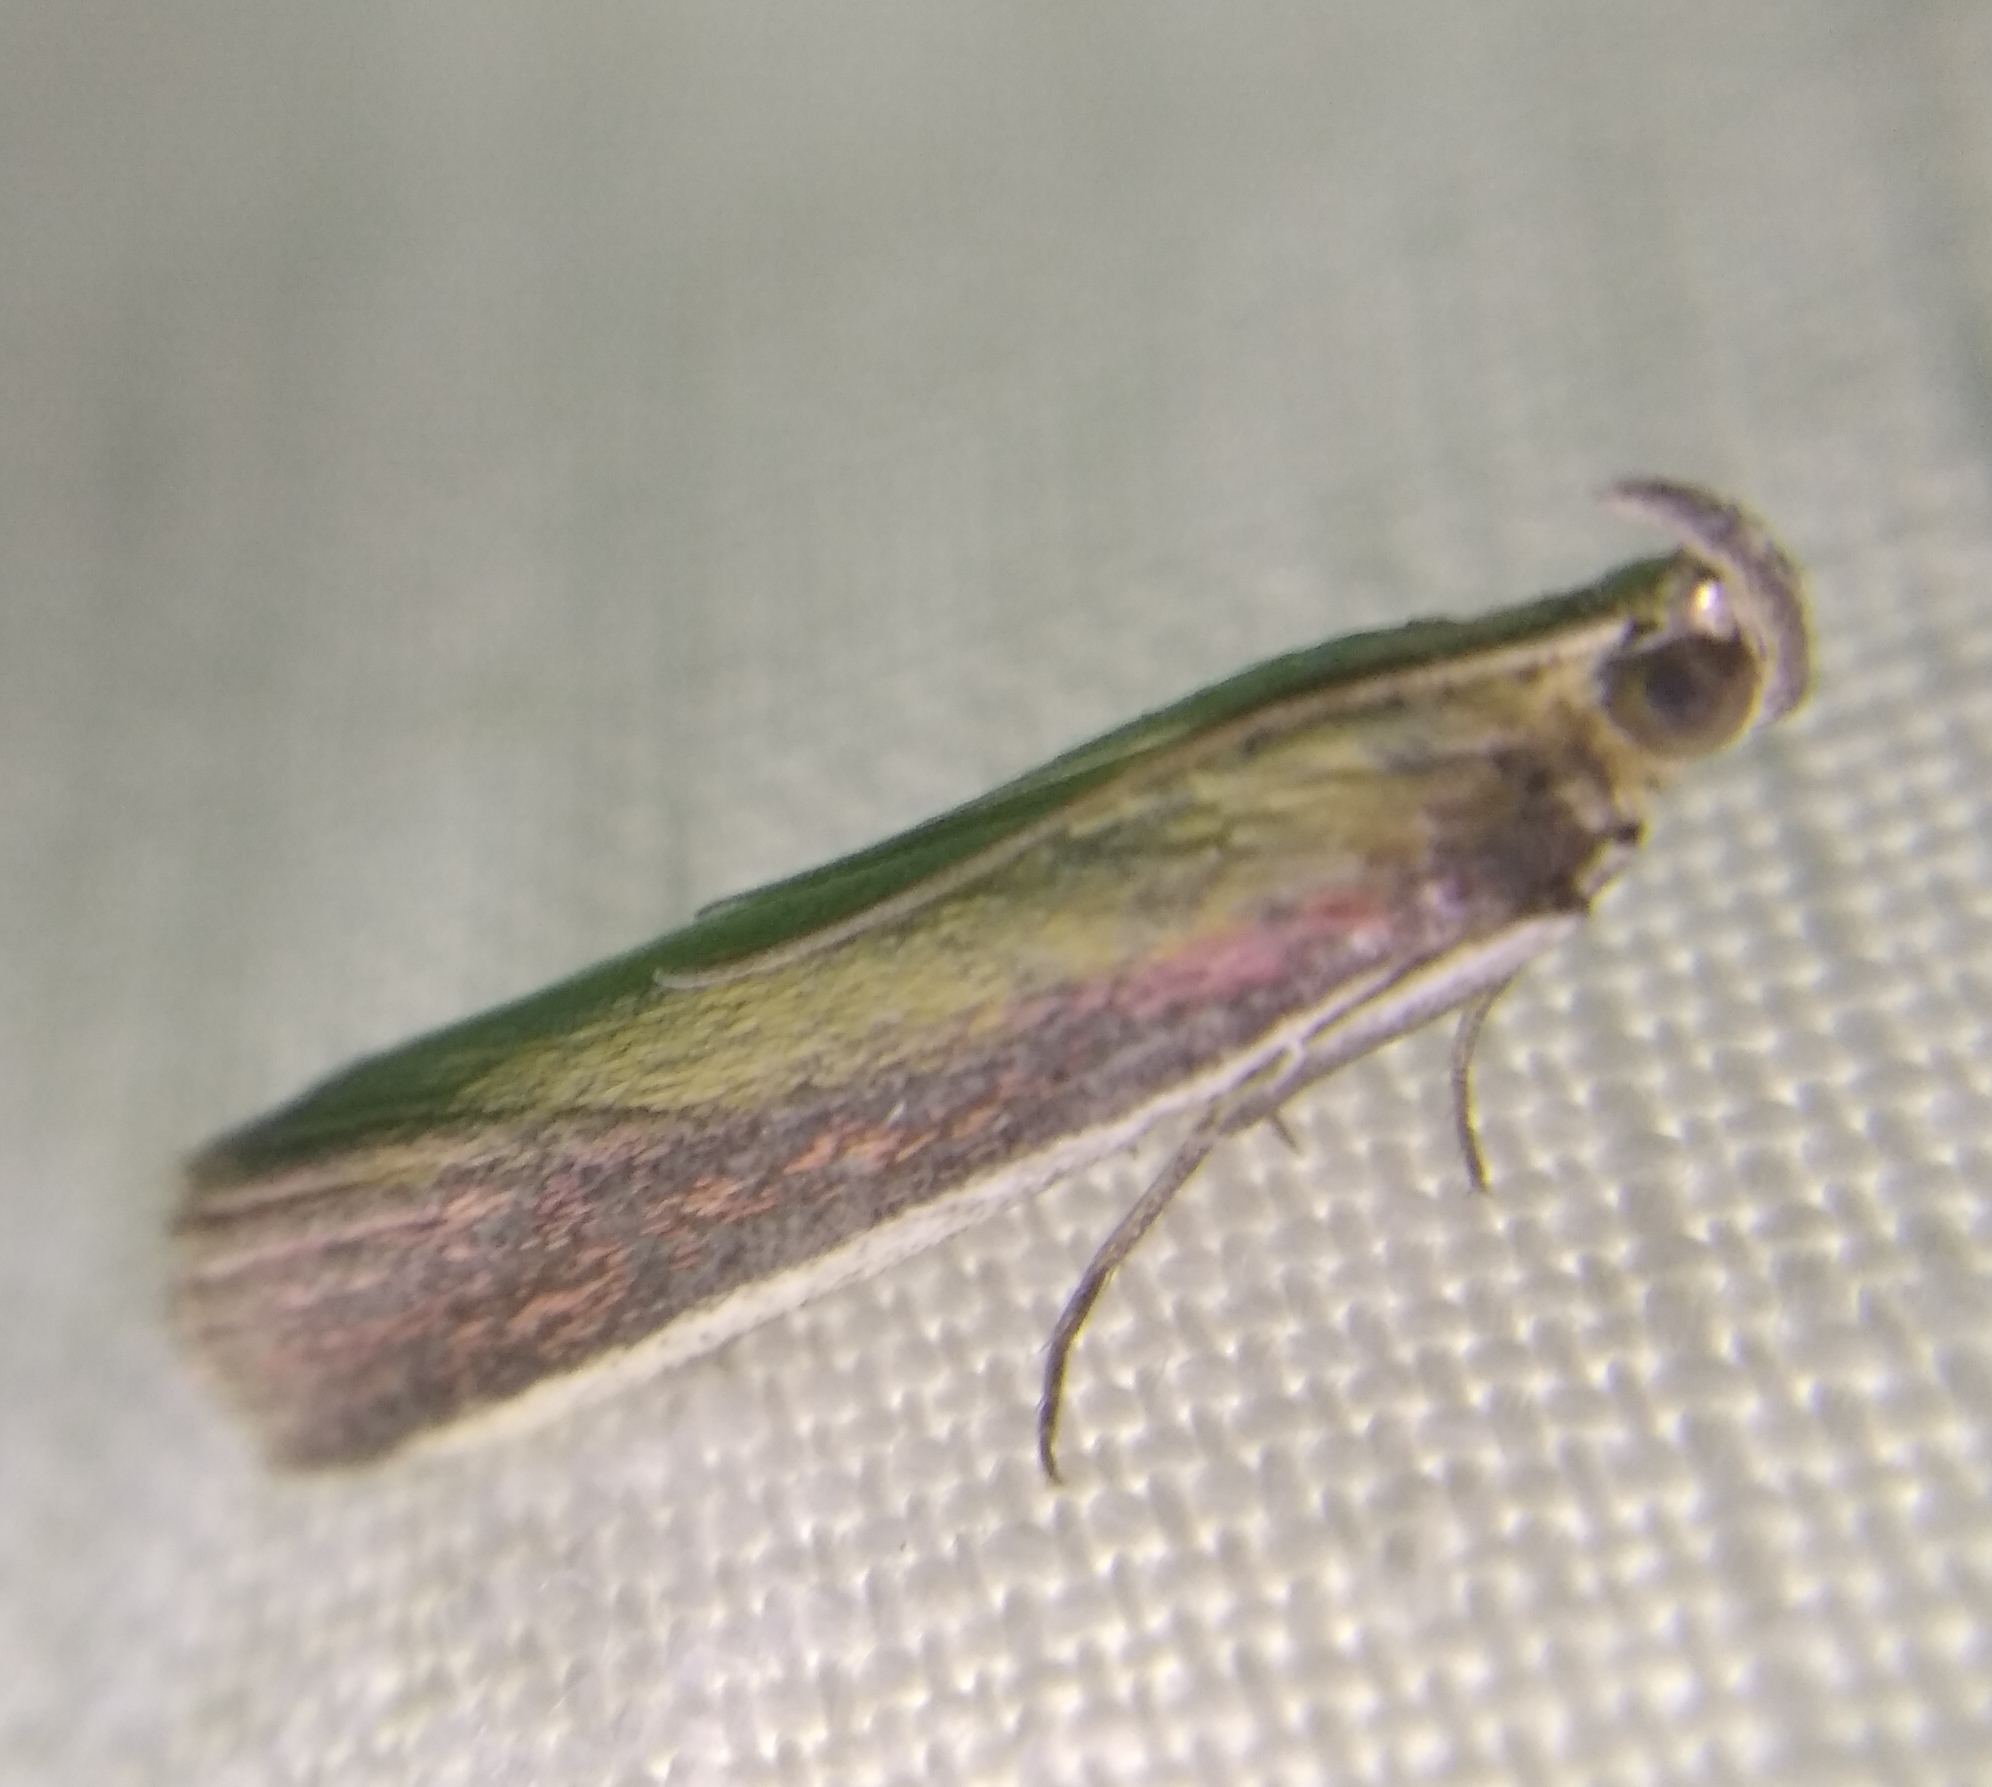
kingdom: Animalia
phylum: Arthropoda
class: Insecta
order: Lepidoptera
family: Pyralidae
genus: Oncocera
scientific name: Oncocera semirubella
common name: Rosy-striped knot-horn
